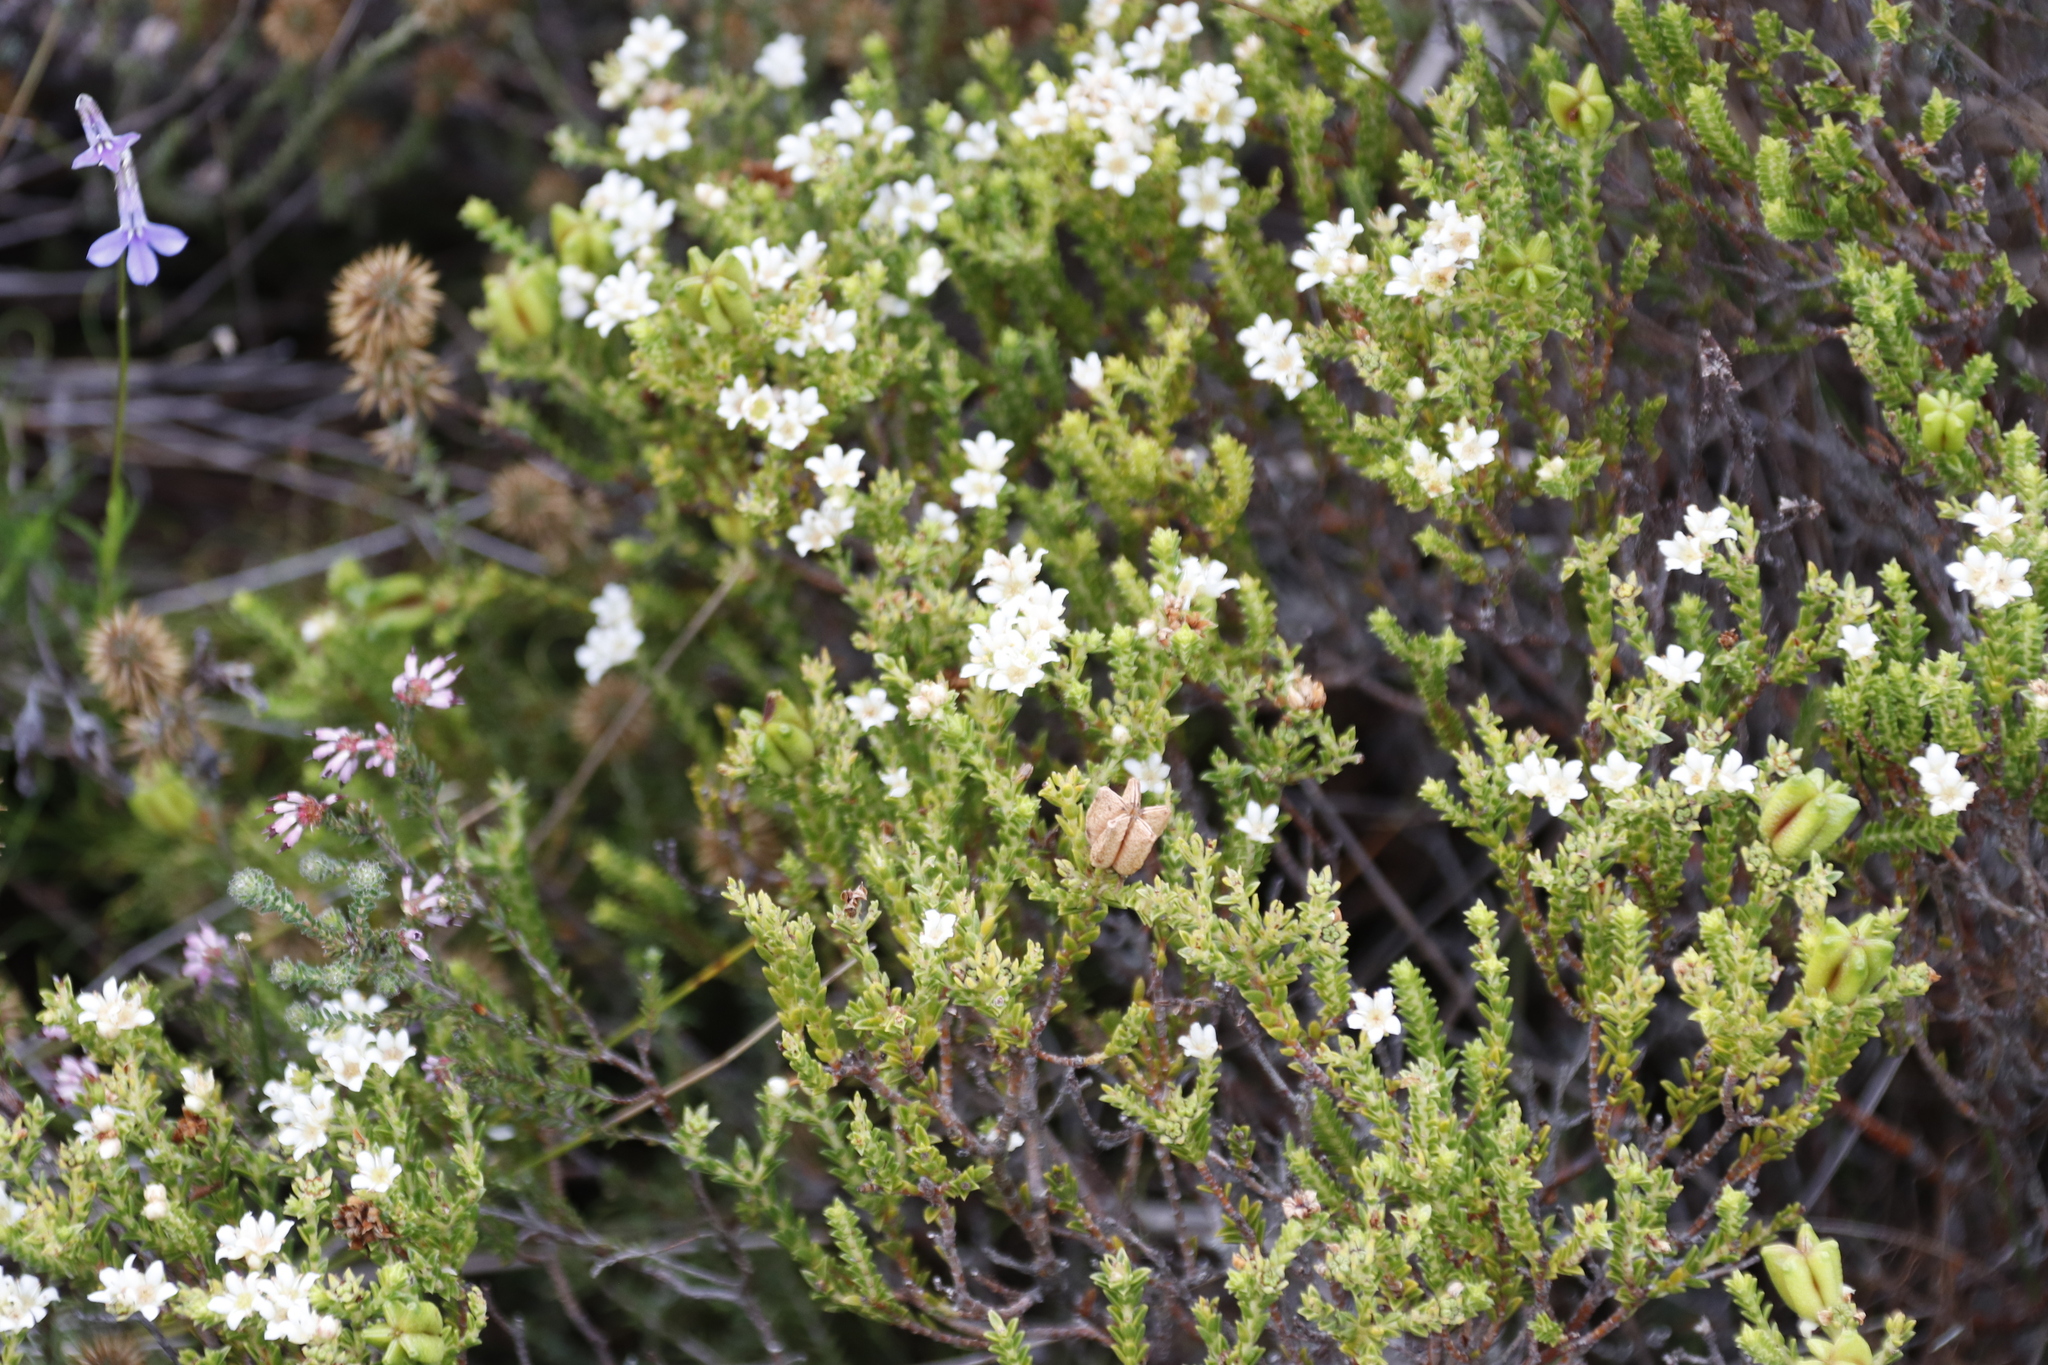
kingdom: Plantae
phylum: Tracheophyta
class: Magnoliopsida
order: Sapindales
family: Rutaceae
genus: Diosma
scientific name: Diosma oppositifolia
